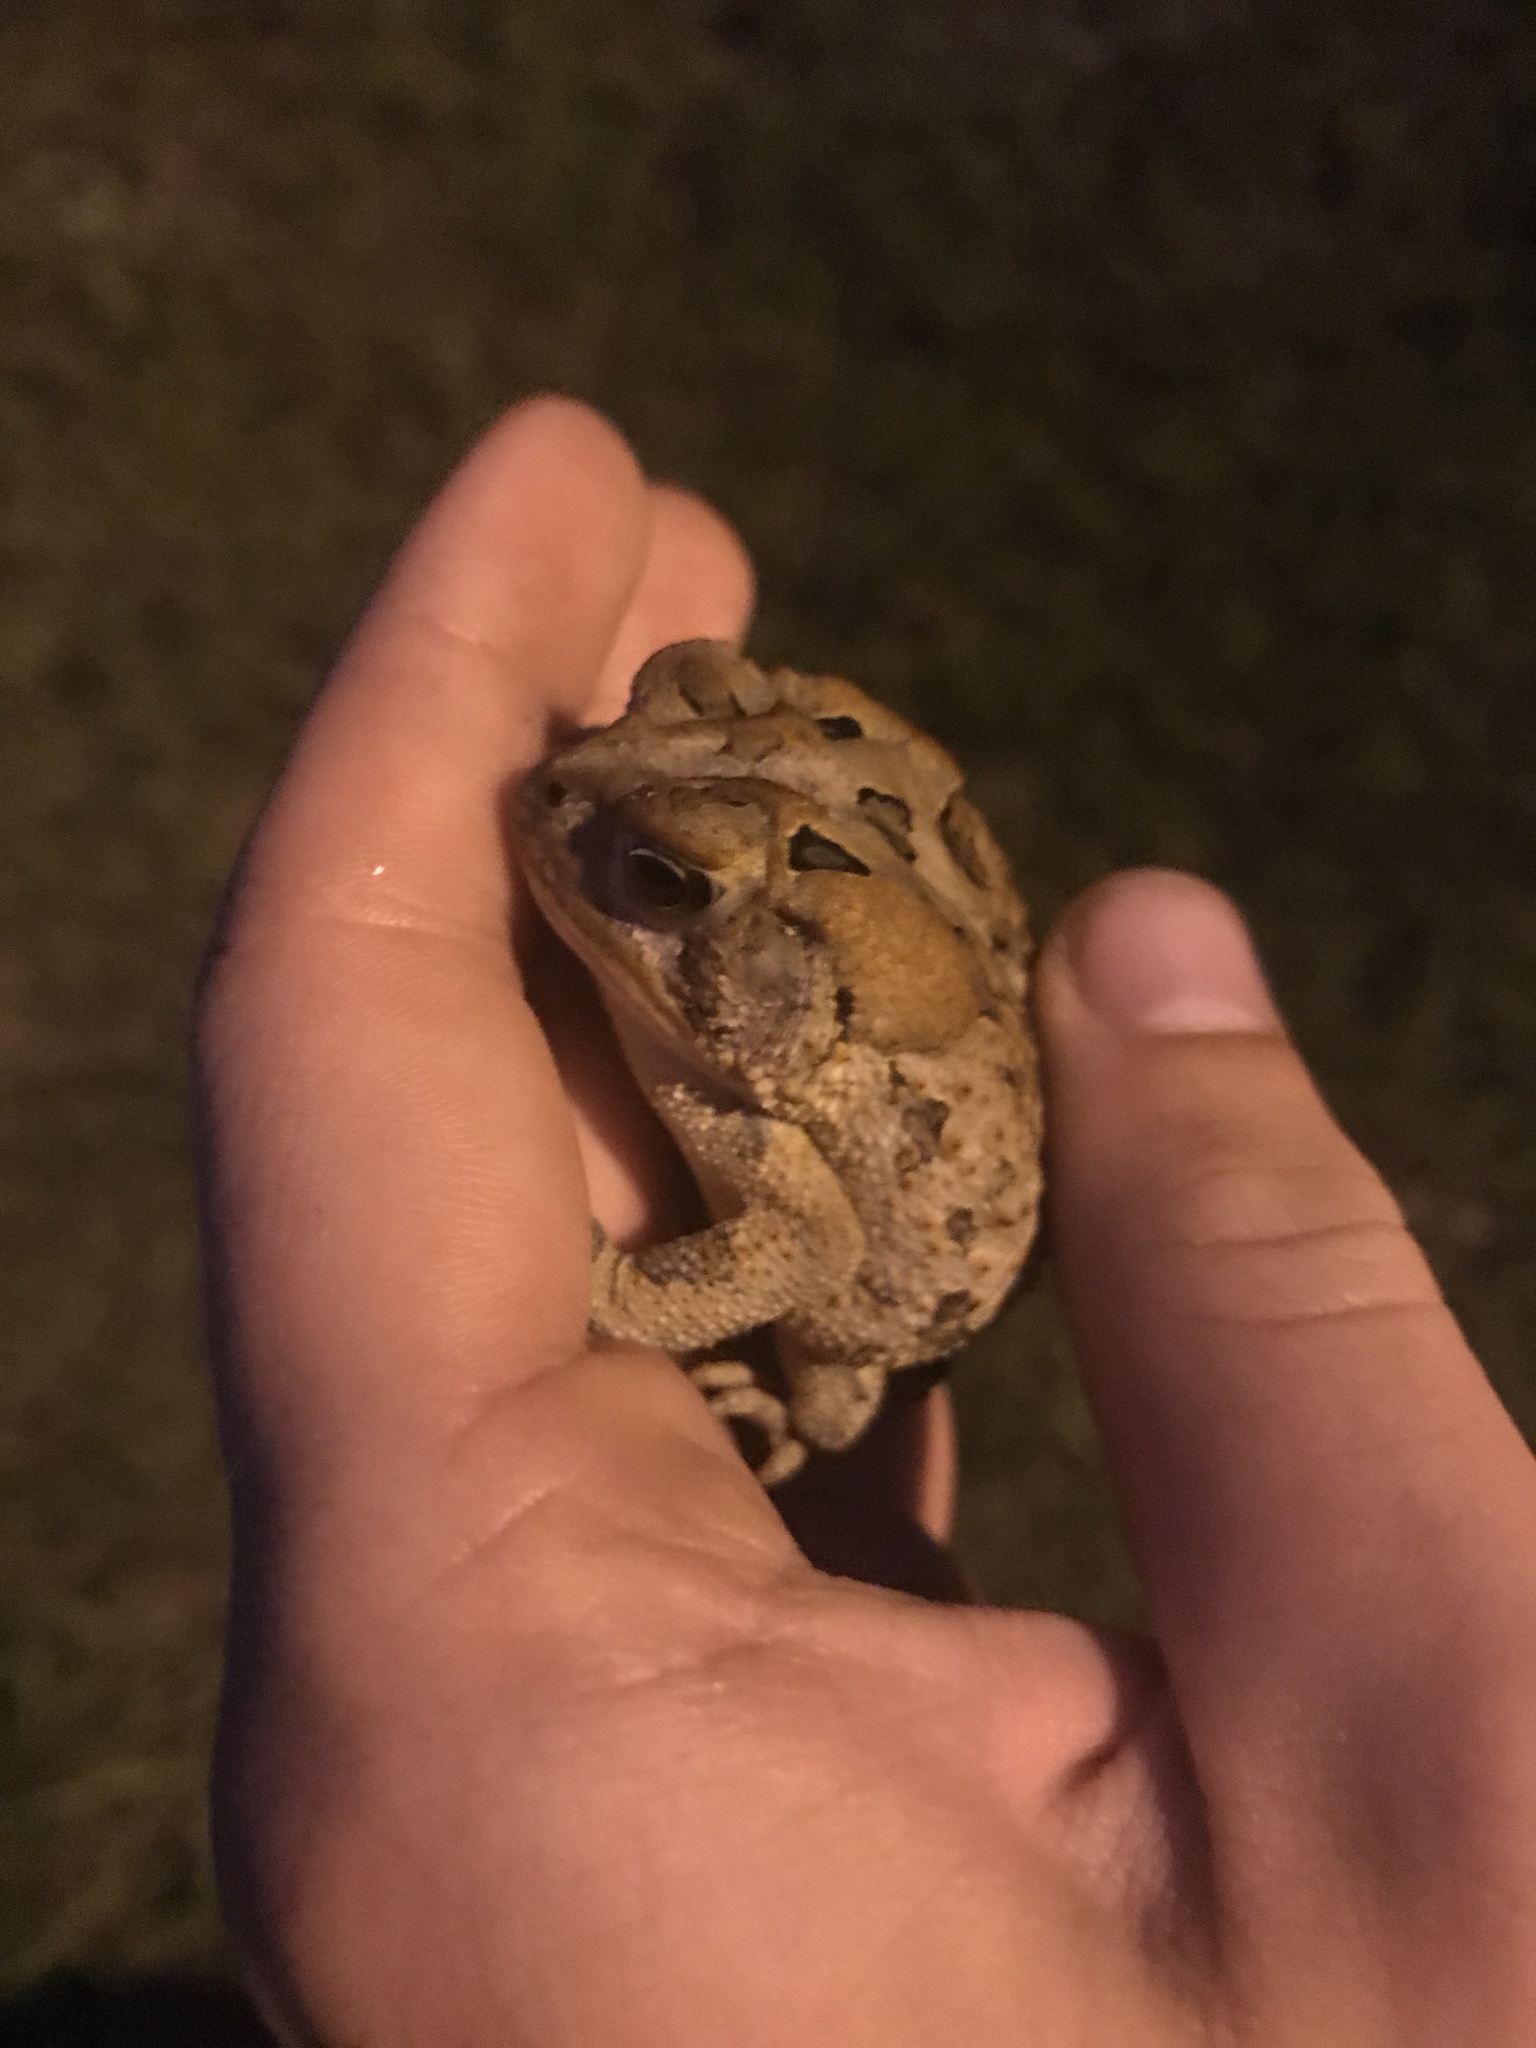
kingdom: Animalia
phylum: Chordata
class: Amphibia
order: Anura
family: Bufonidae
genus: Anaxyrus
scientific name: Anaxyrus terrestris
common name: Southern toad
